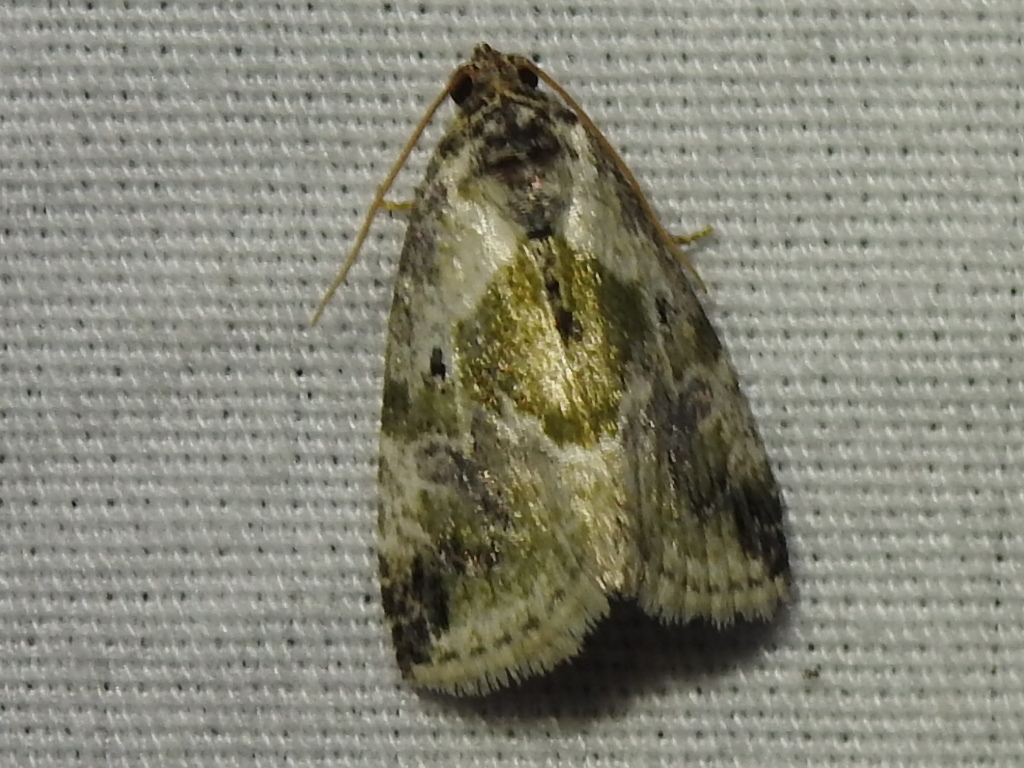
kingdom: Animalia
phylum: Arthropoda
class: Insecta
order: Lepidoptera
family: Noctuidae
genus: Maliattha
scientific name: Maliattha synochitis
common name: Black-dotted glyph
